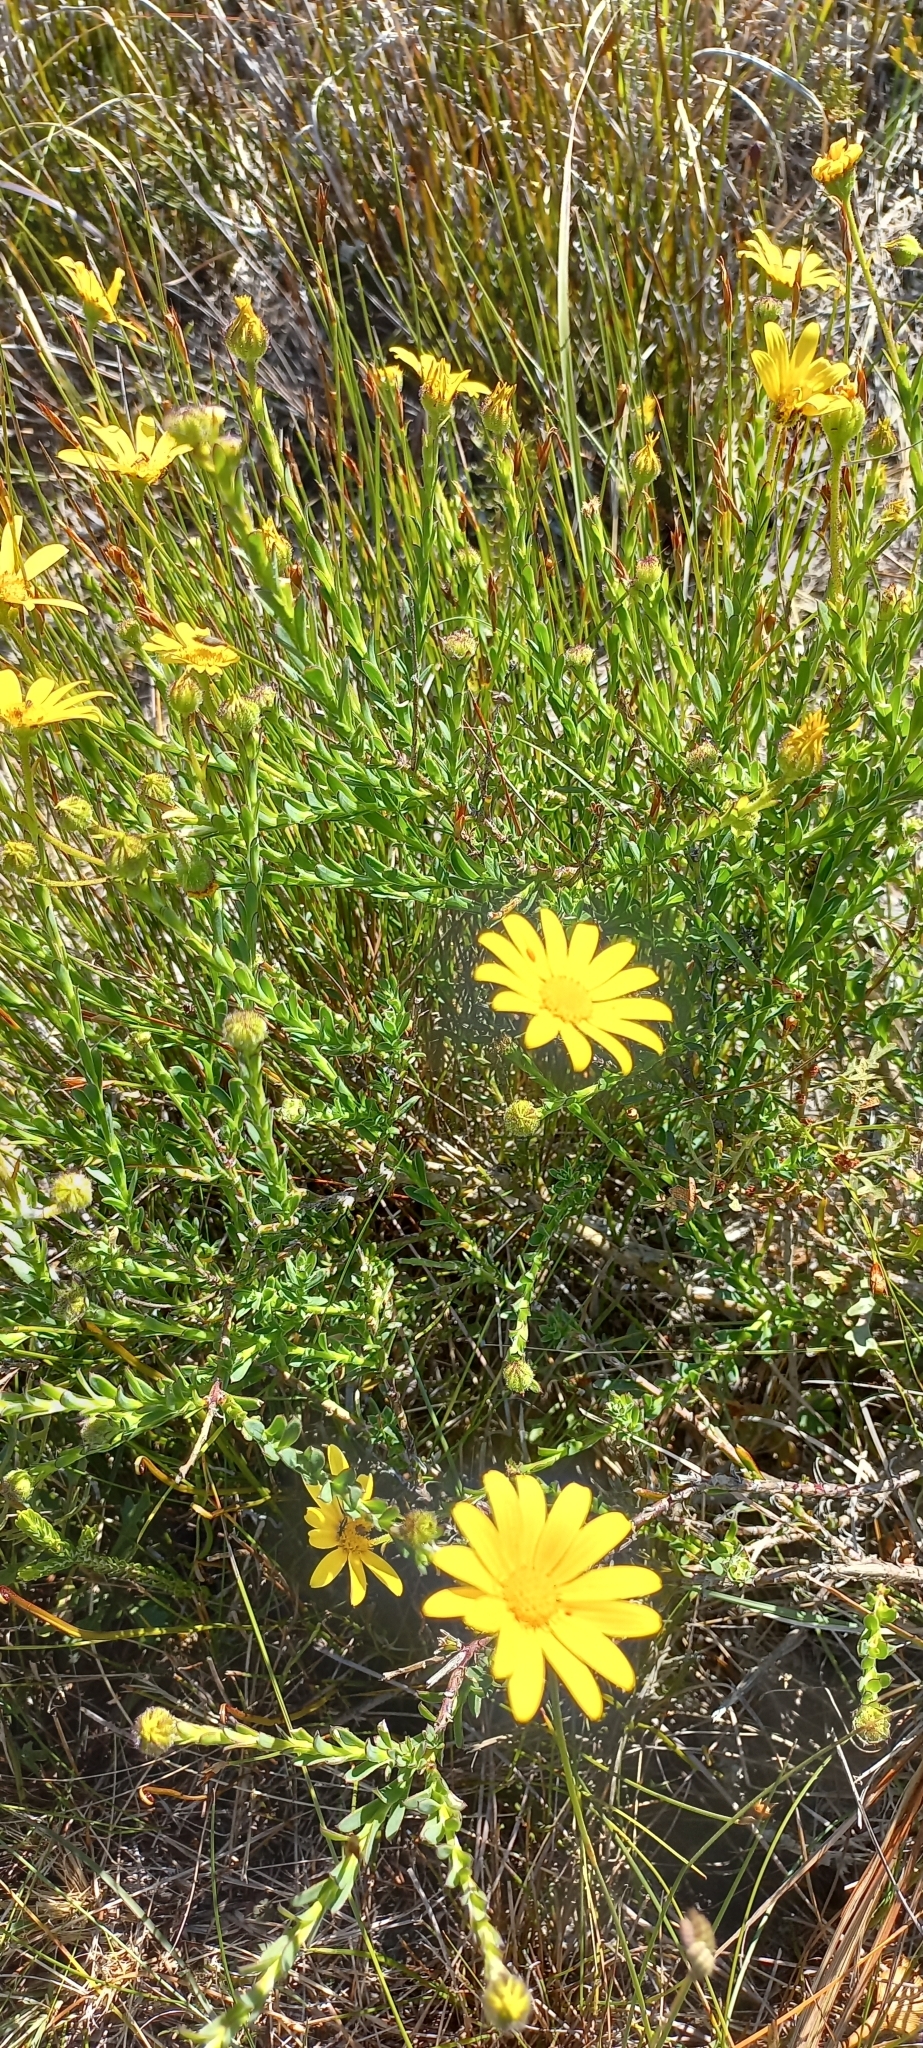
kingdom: Plantae
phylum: Tracheophyta
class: Magnoliopsida
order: Asterales
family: Asteraceae
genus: Osteospermum
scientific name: Osteospermum polygaloides
